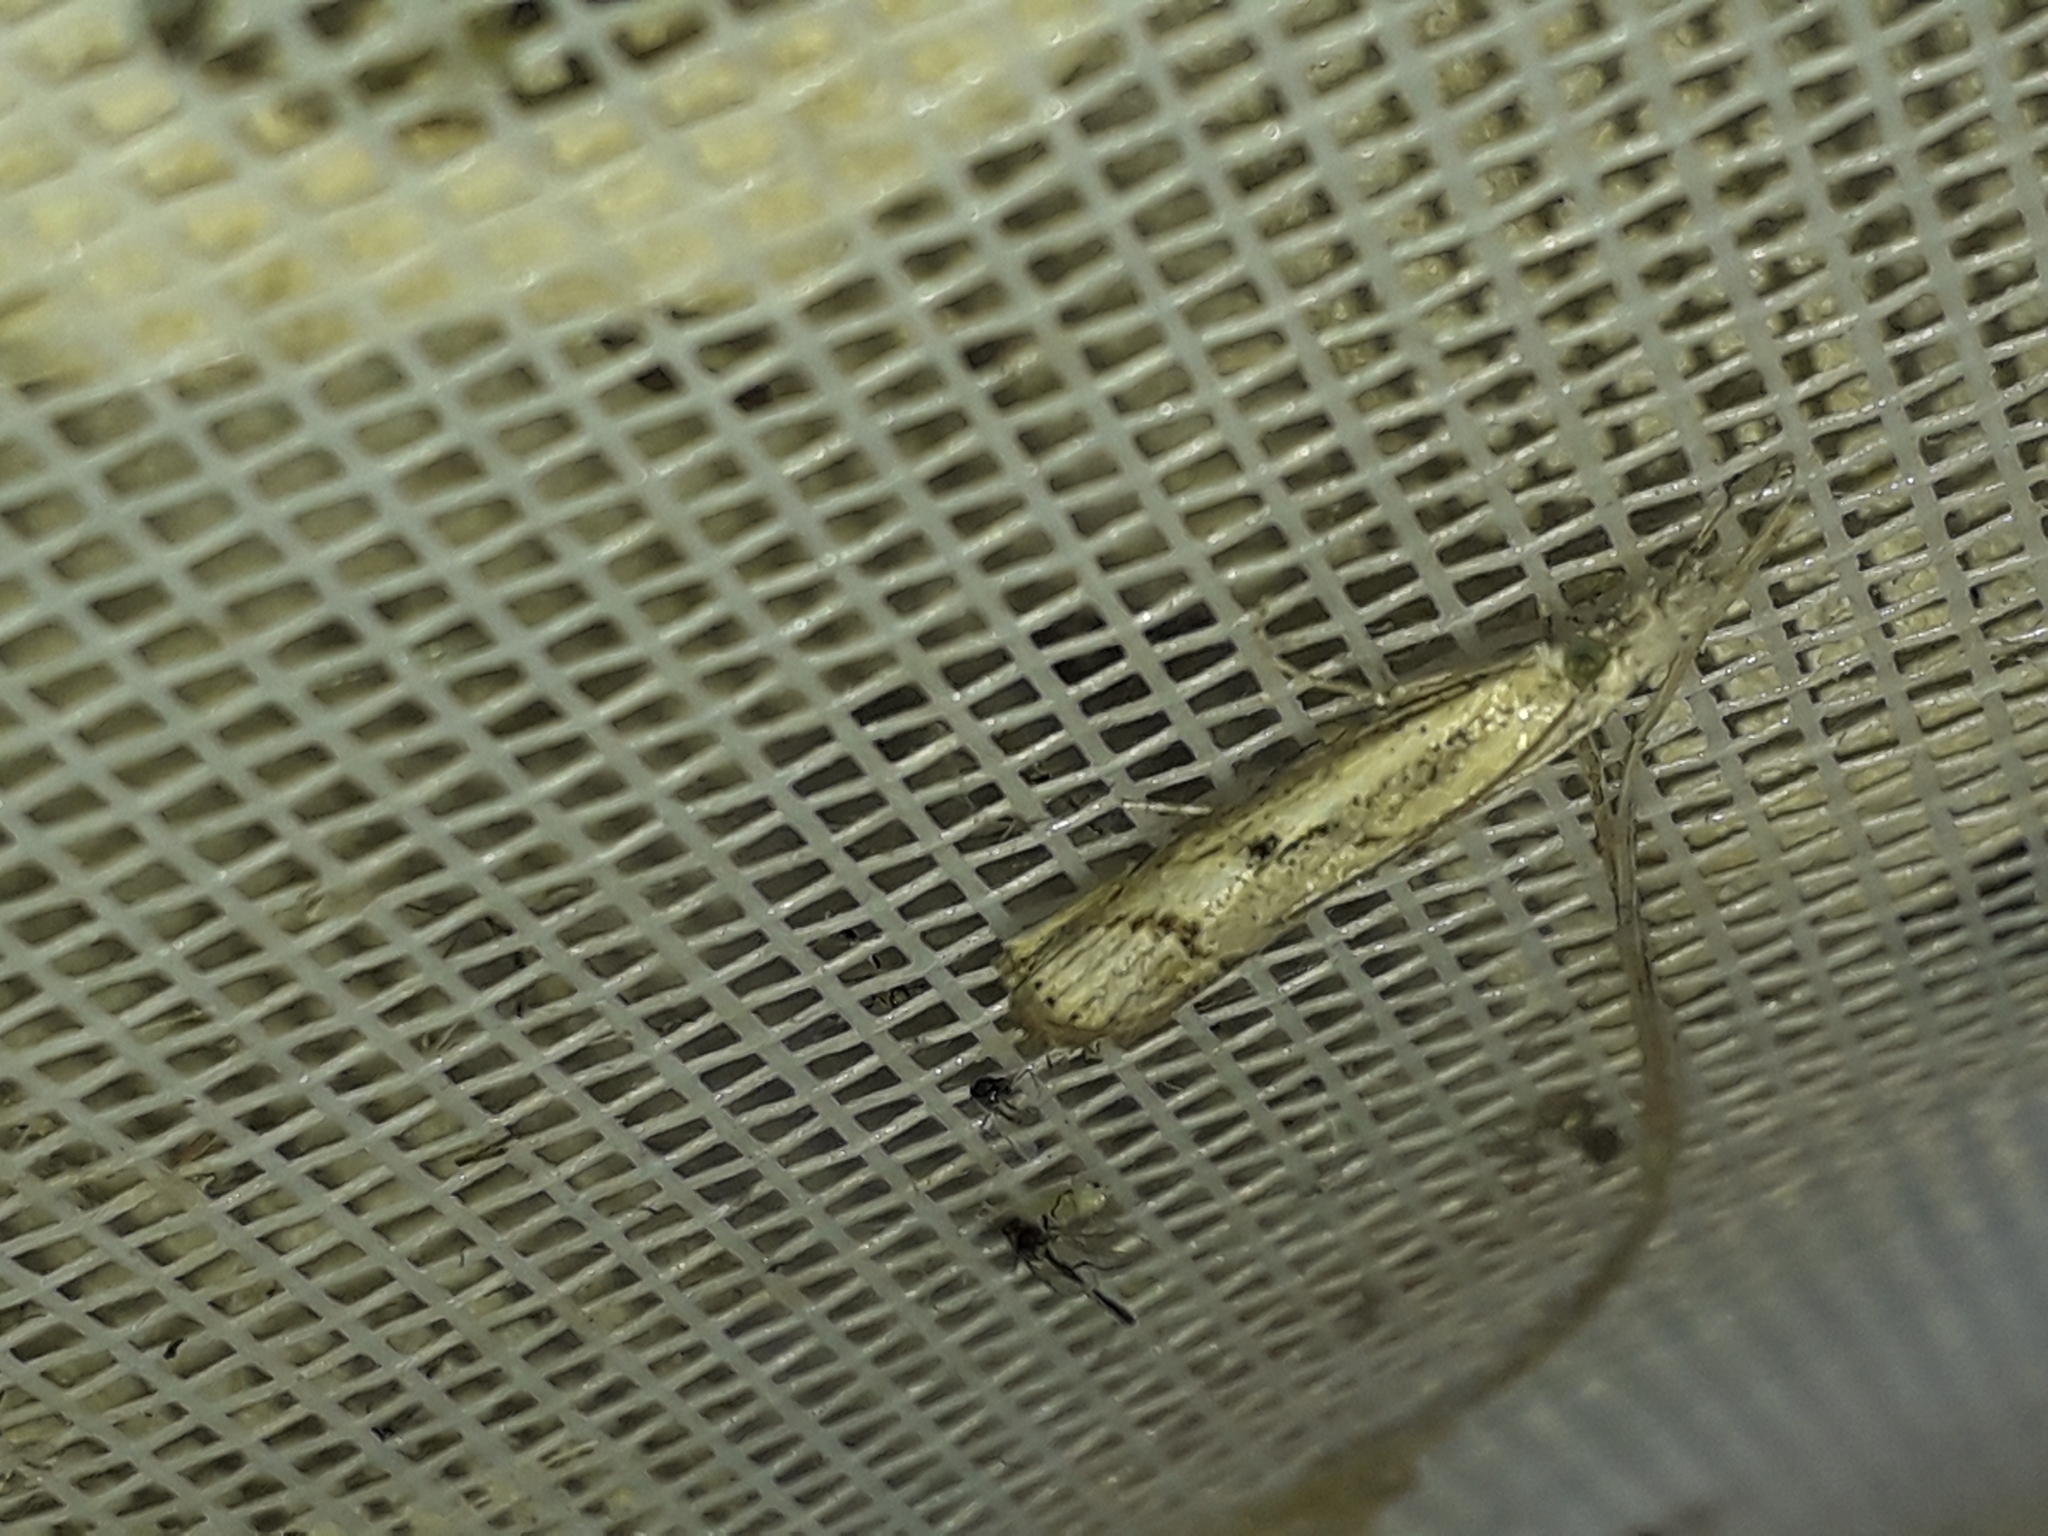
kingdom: Animalia
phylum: Arthropoda
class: Insecta
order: Lepidoptera
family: Crambidae
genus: Agriphila
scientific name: Agriphila geniculea
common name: Elbow-stripe grass-veneer
